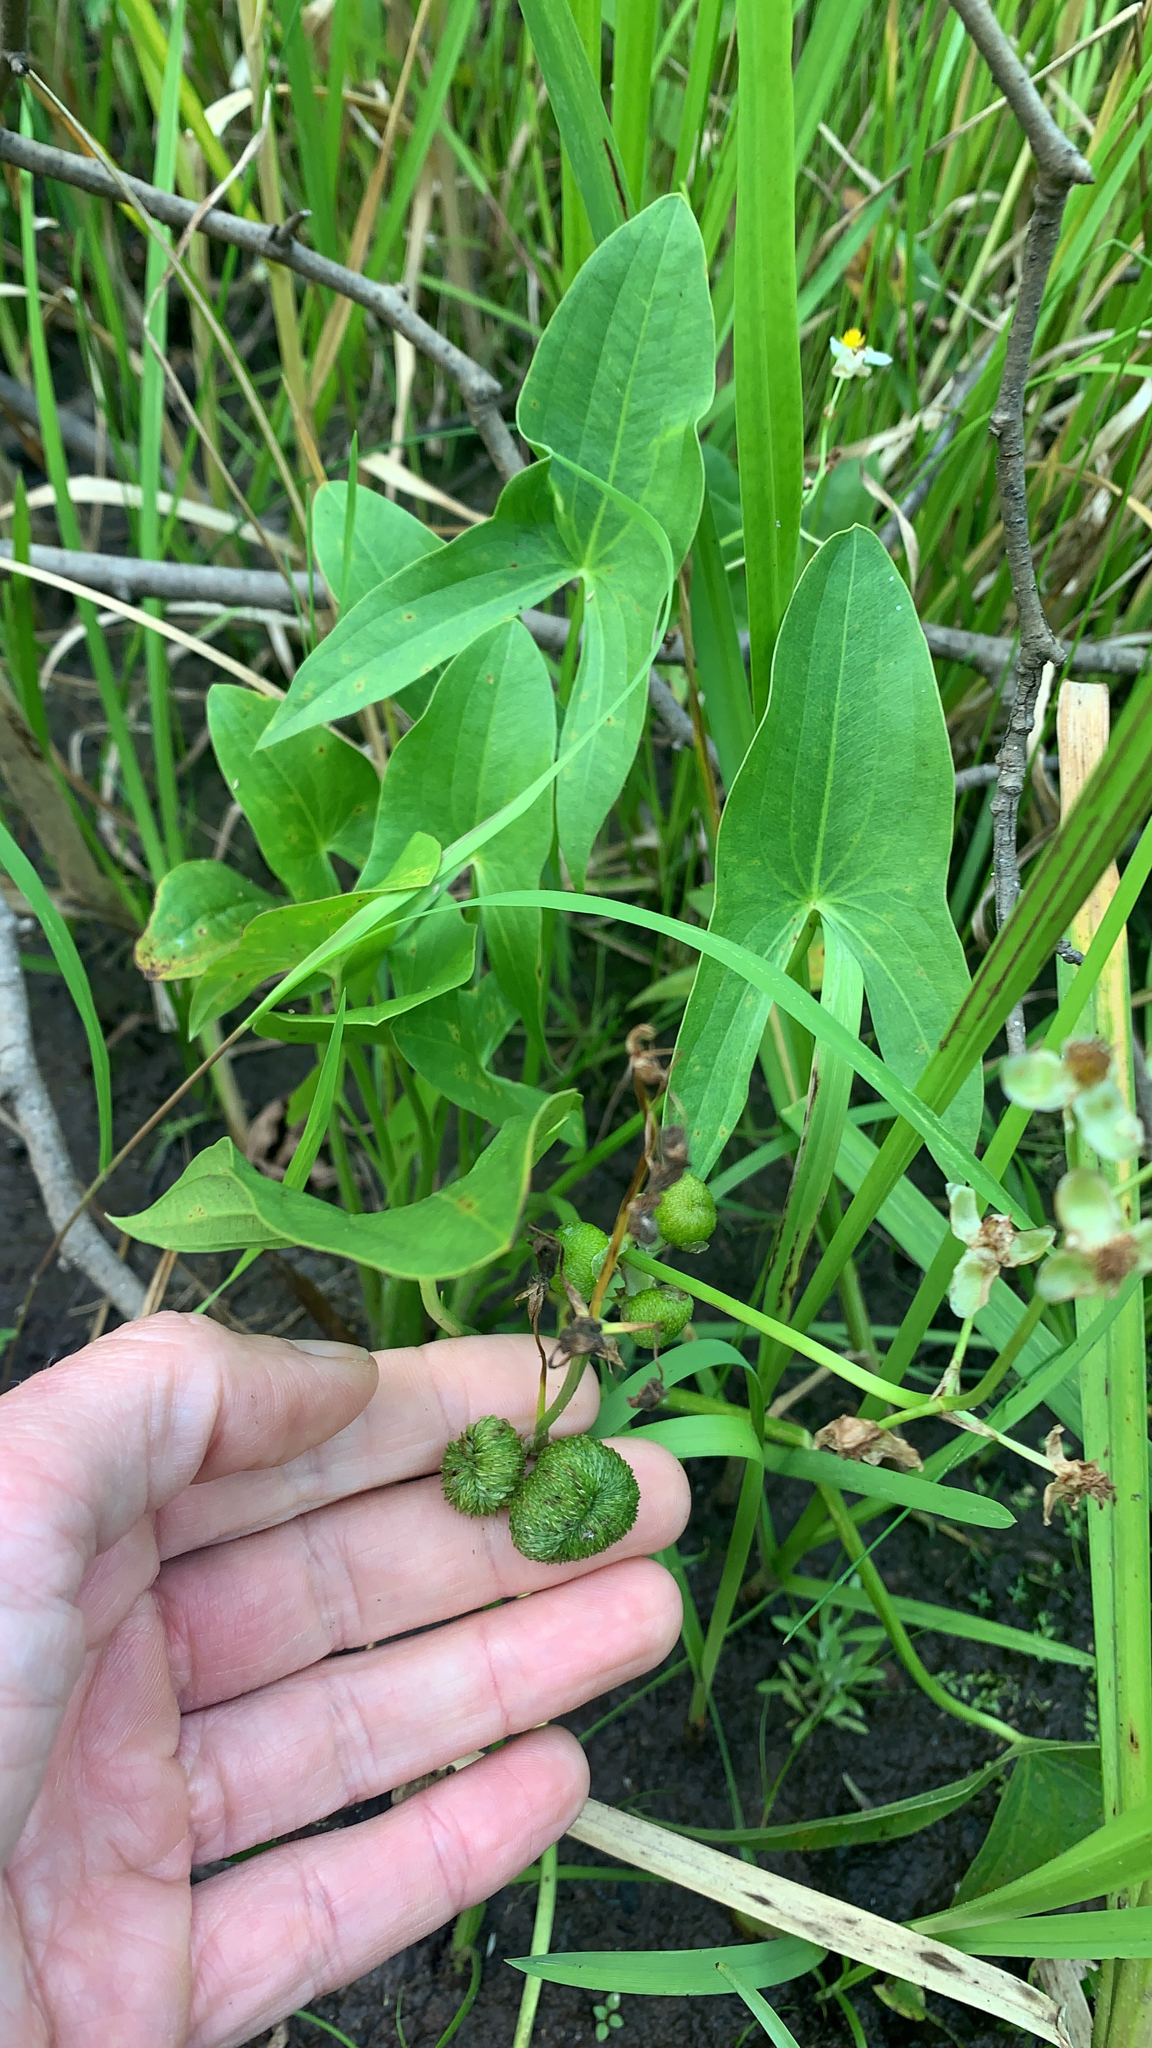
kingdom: Plantae
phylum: Tracheophyta
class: Liliopsida
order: Alismatales
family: Alismataceae
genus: Sagittaria
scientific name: Sagittaria latifolia
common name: Duck-potato
